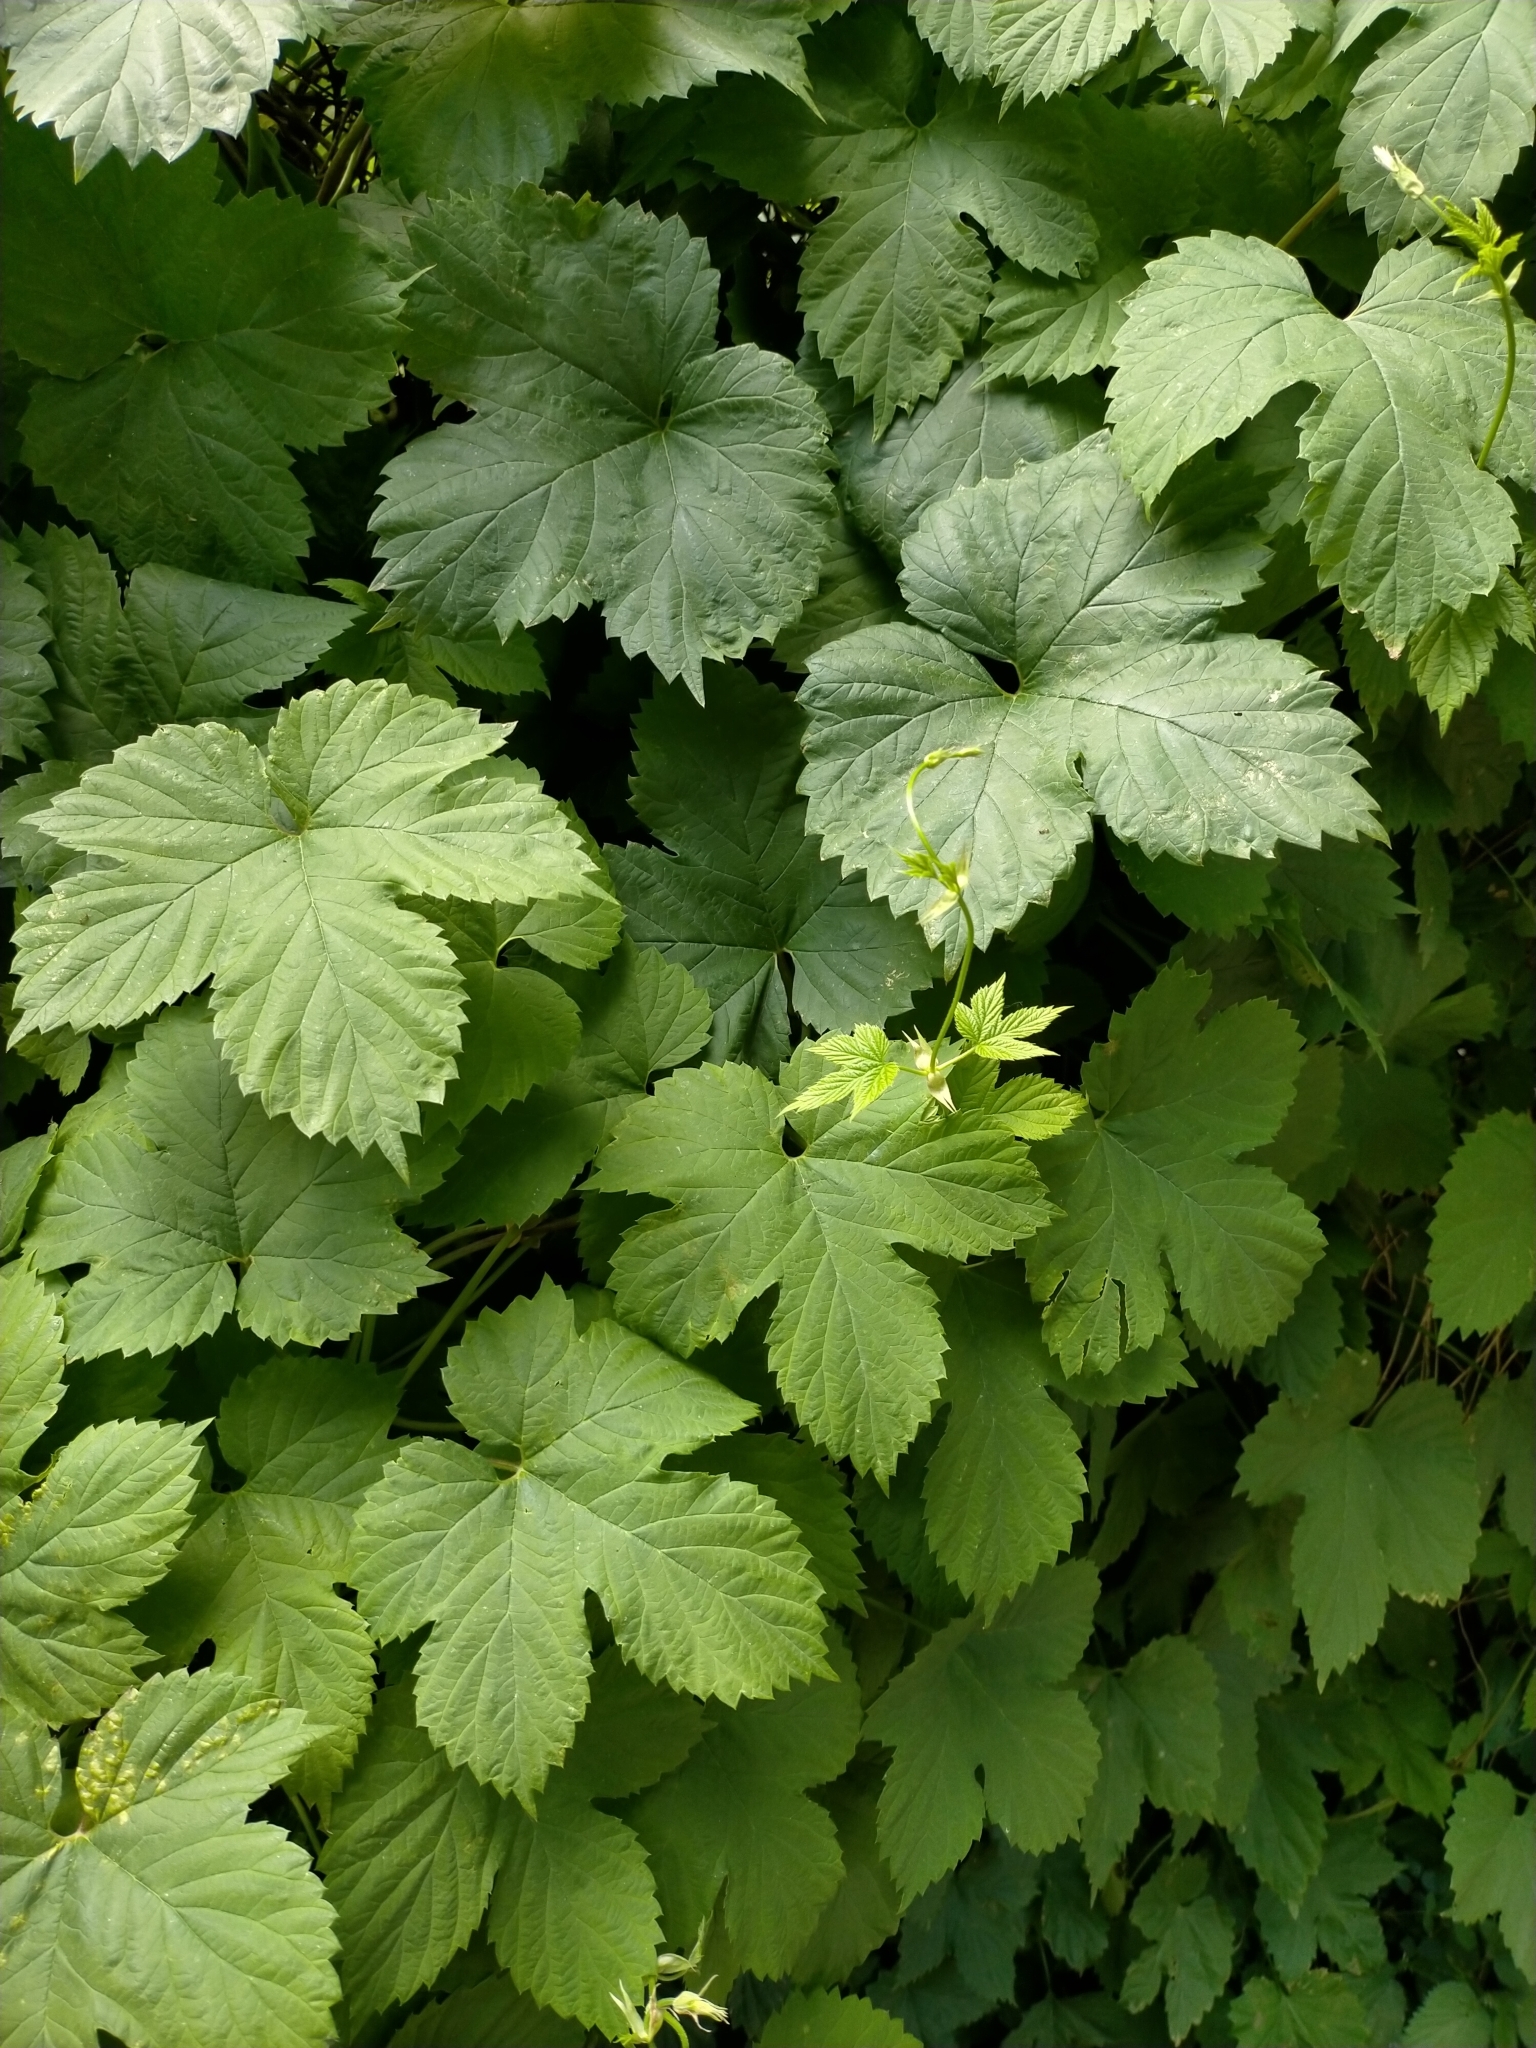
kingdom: Plantae
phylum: Tracheophyta
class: Magnoliopsida
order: Rosales
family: Cannabaceae
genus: Humulus
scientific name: Humulus lupulus
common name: Hop
